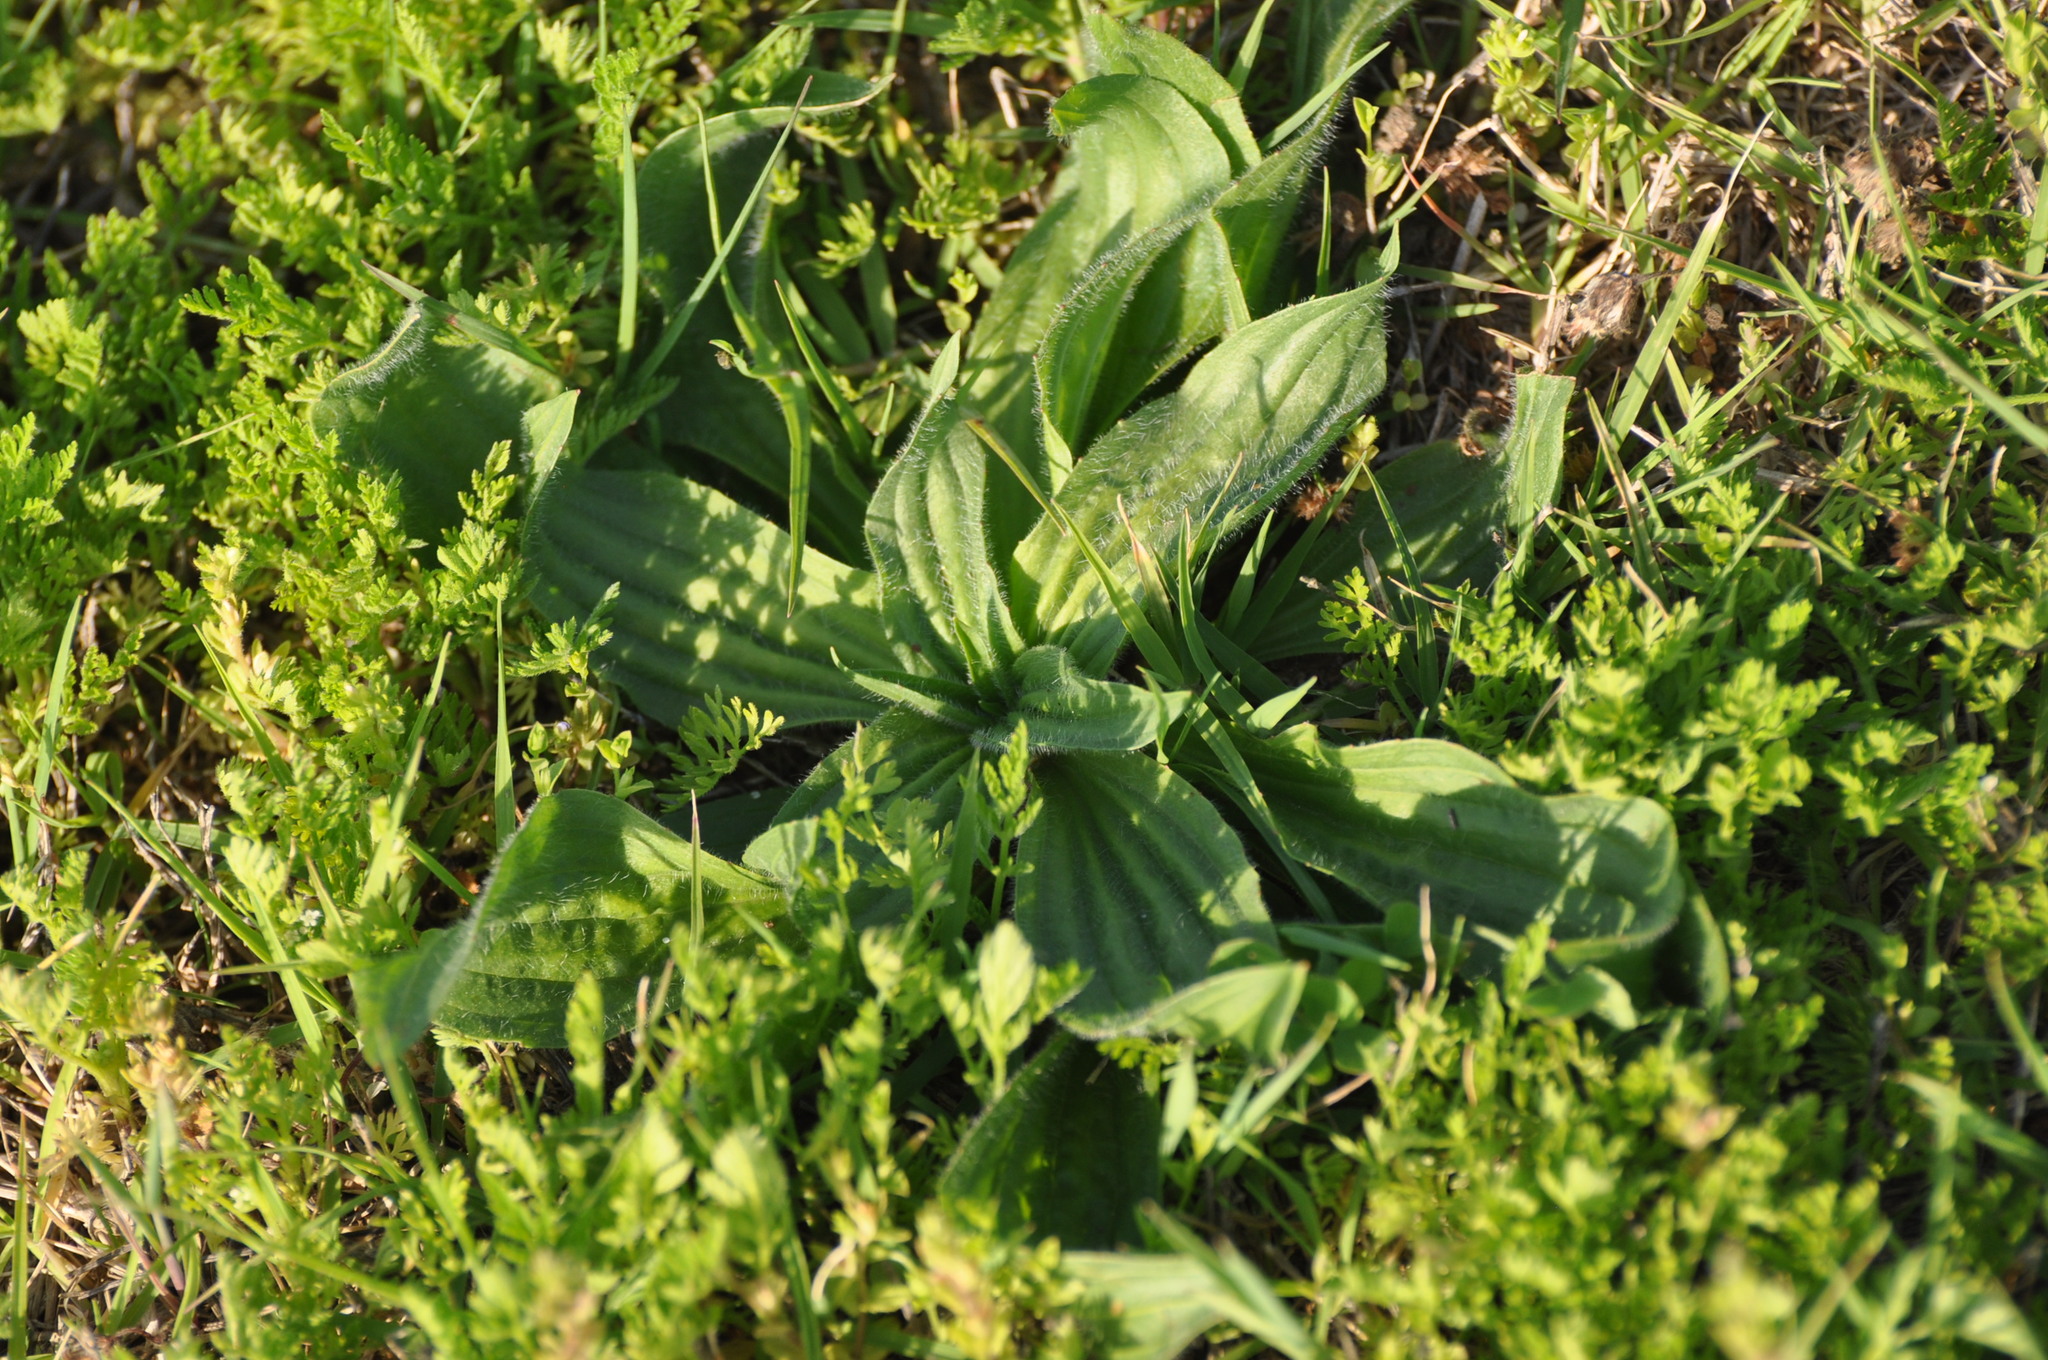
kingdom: Plantae
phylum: Tracheophyta
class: Magnoliopsida
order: Lamiales
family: Plantaginaceae
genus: Plantago
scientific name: Plantago lanceolata
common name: Ribwort plantain
